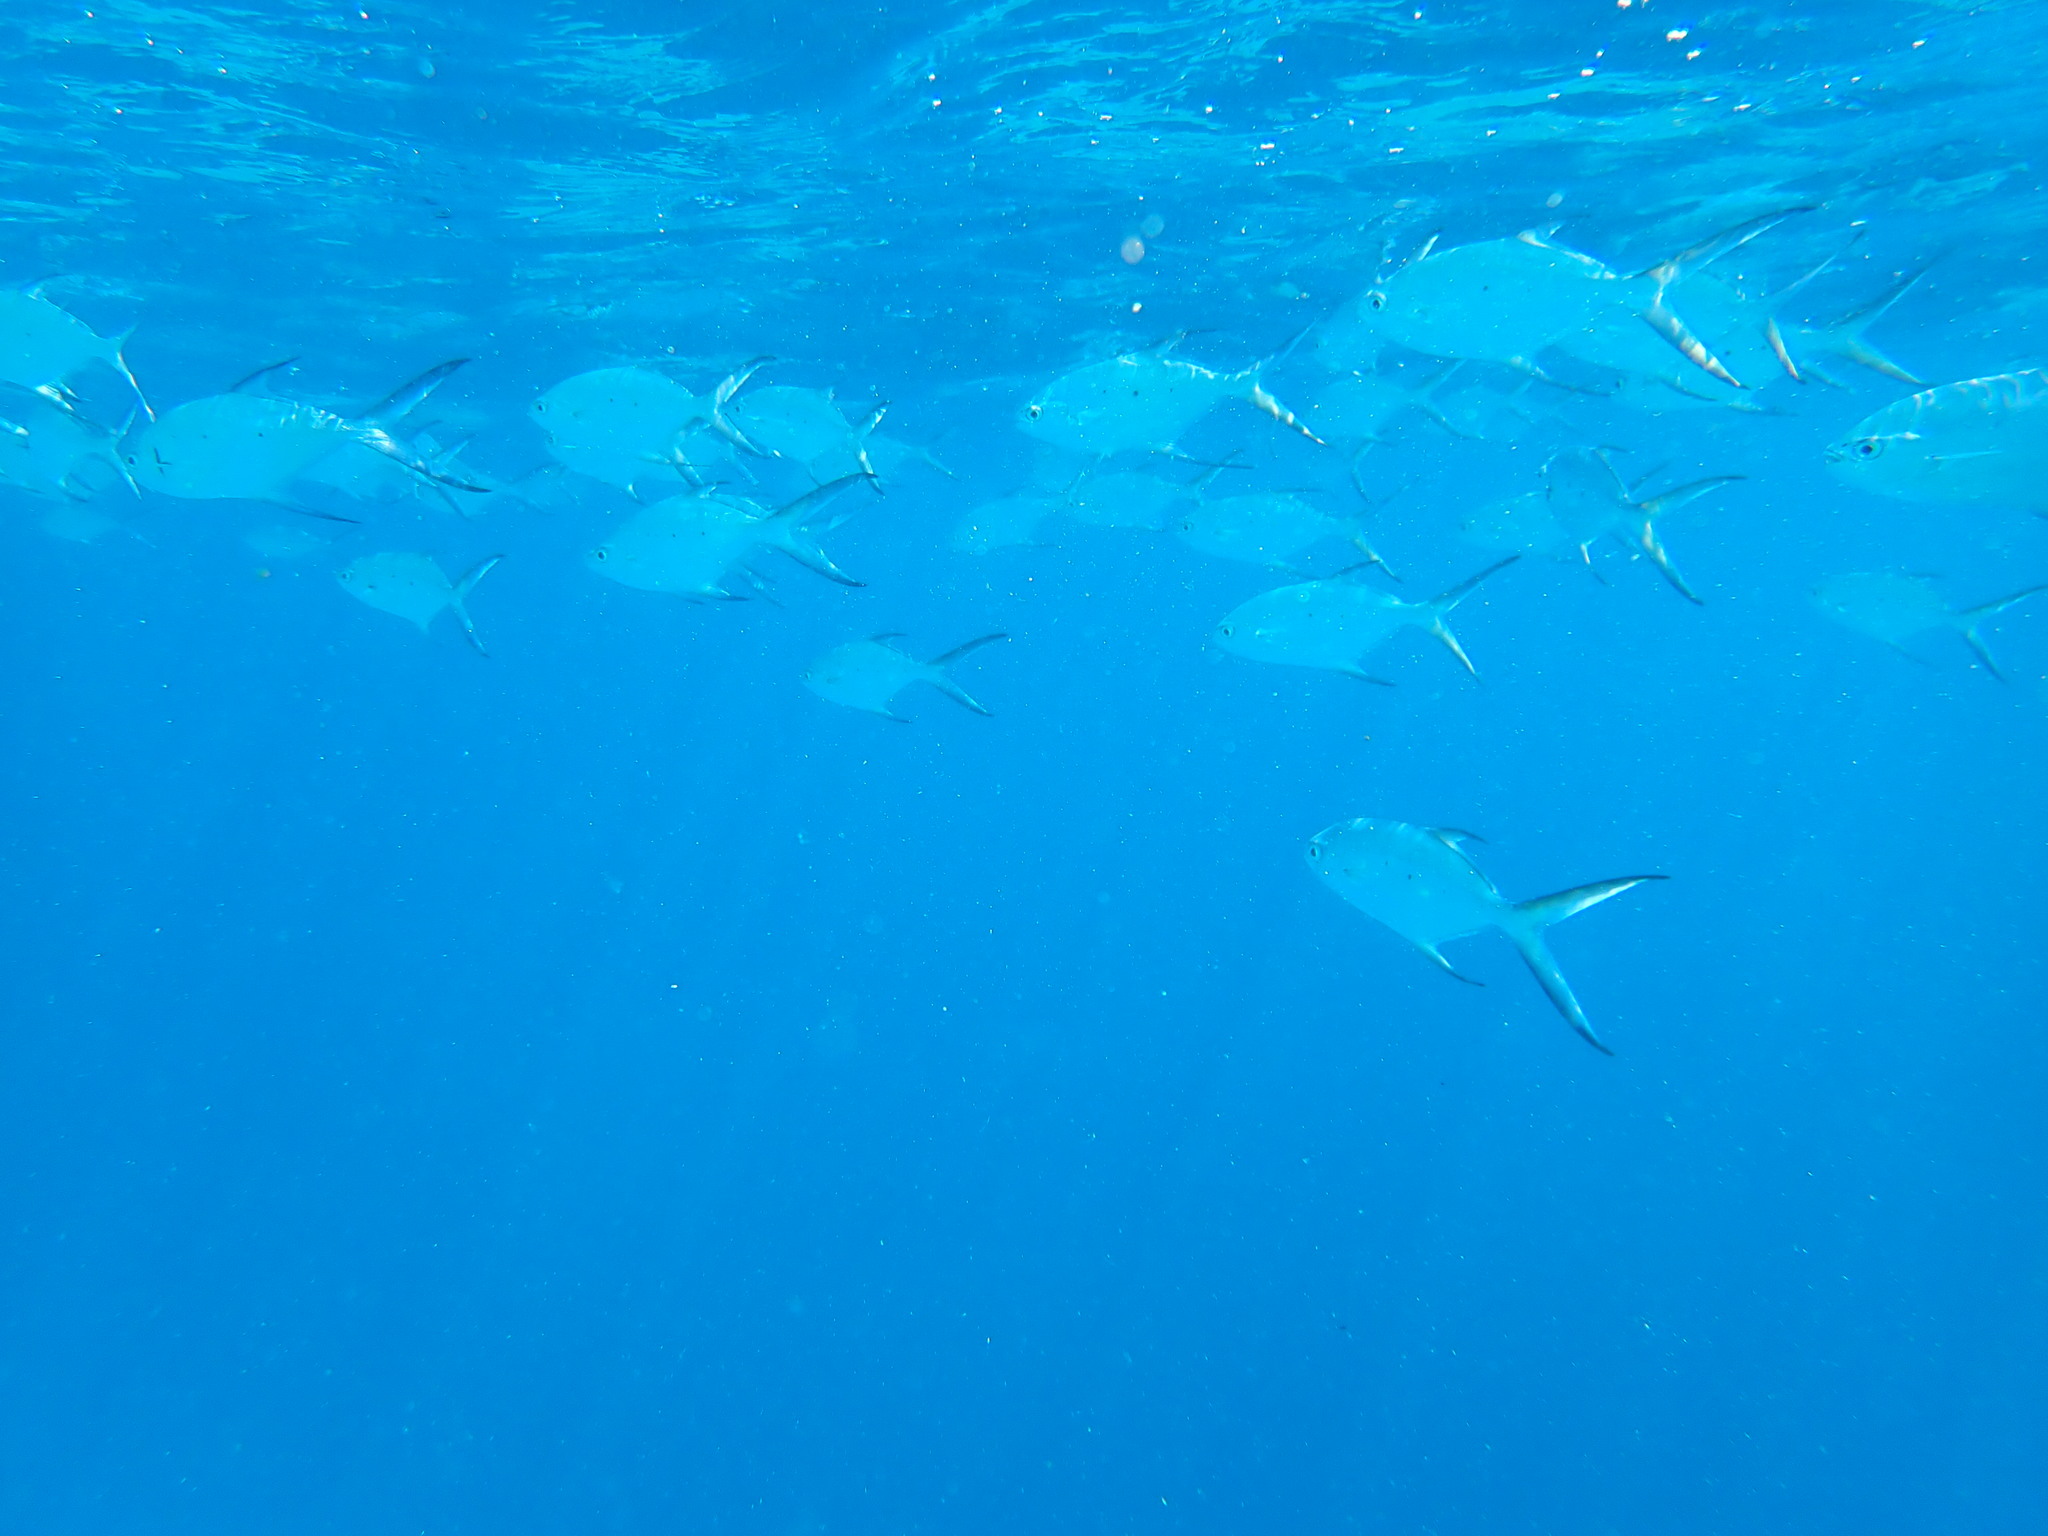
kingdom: Animalia
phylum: Chordata
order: Perciformes
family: Carangidae
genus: Trachinotus
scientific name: Trachinotus baillonii
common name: Smallspotted dart
